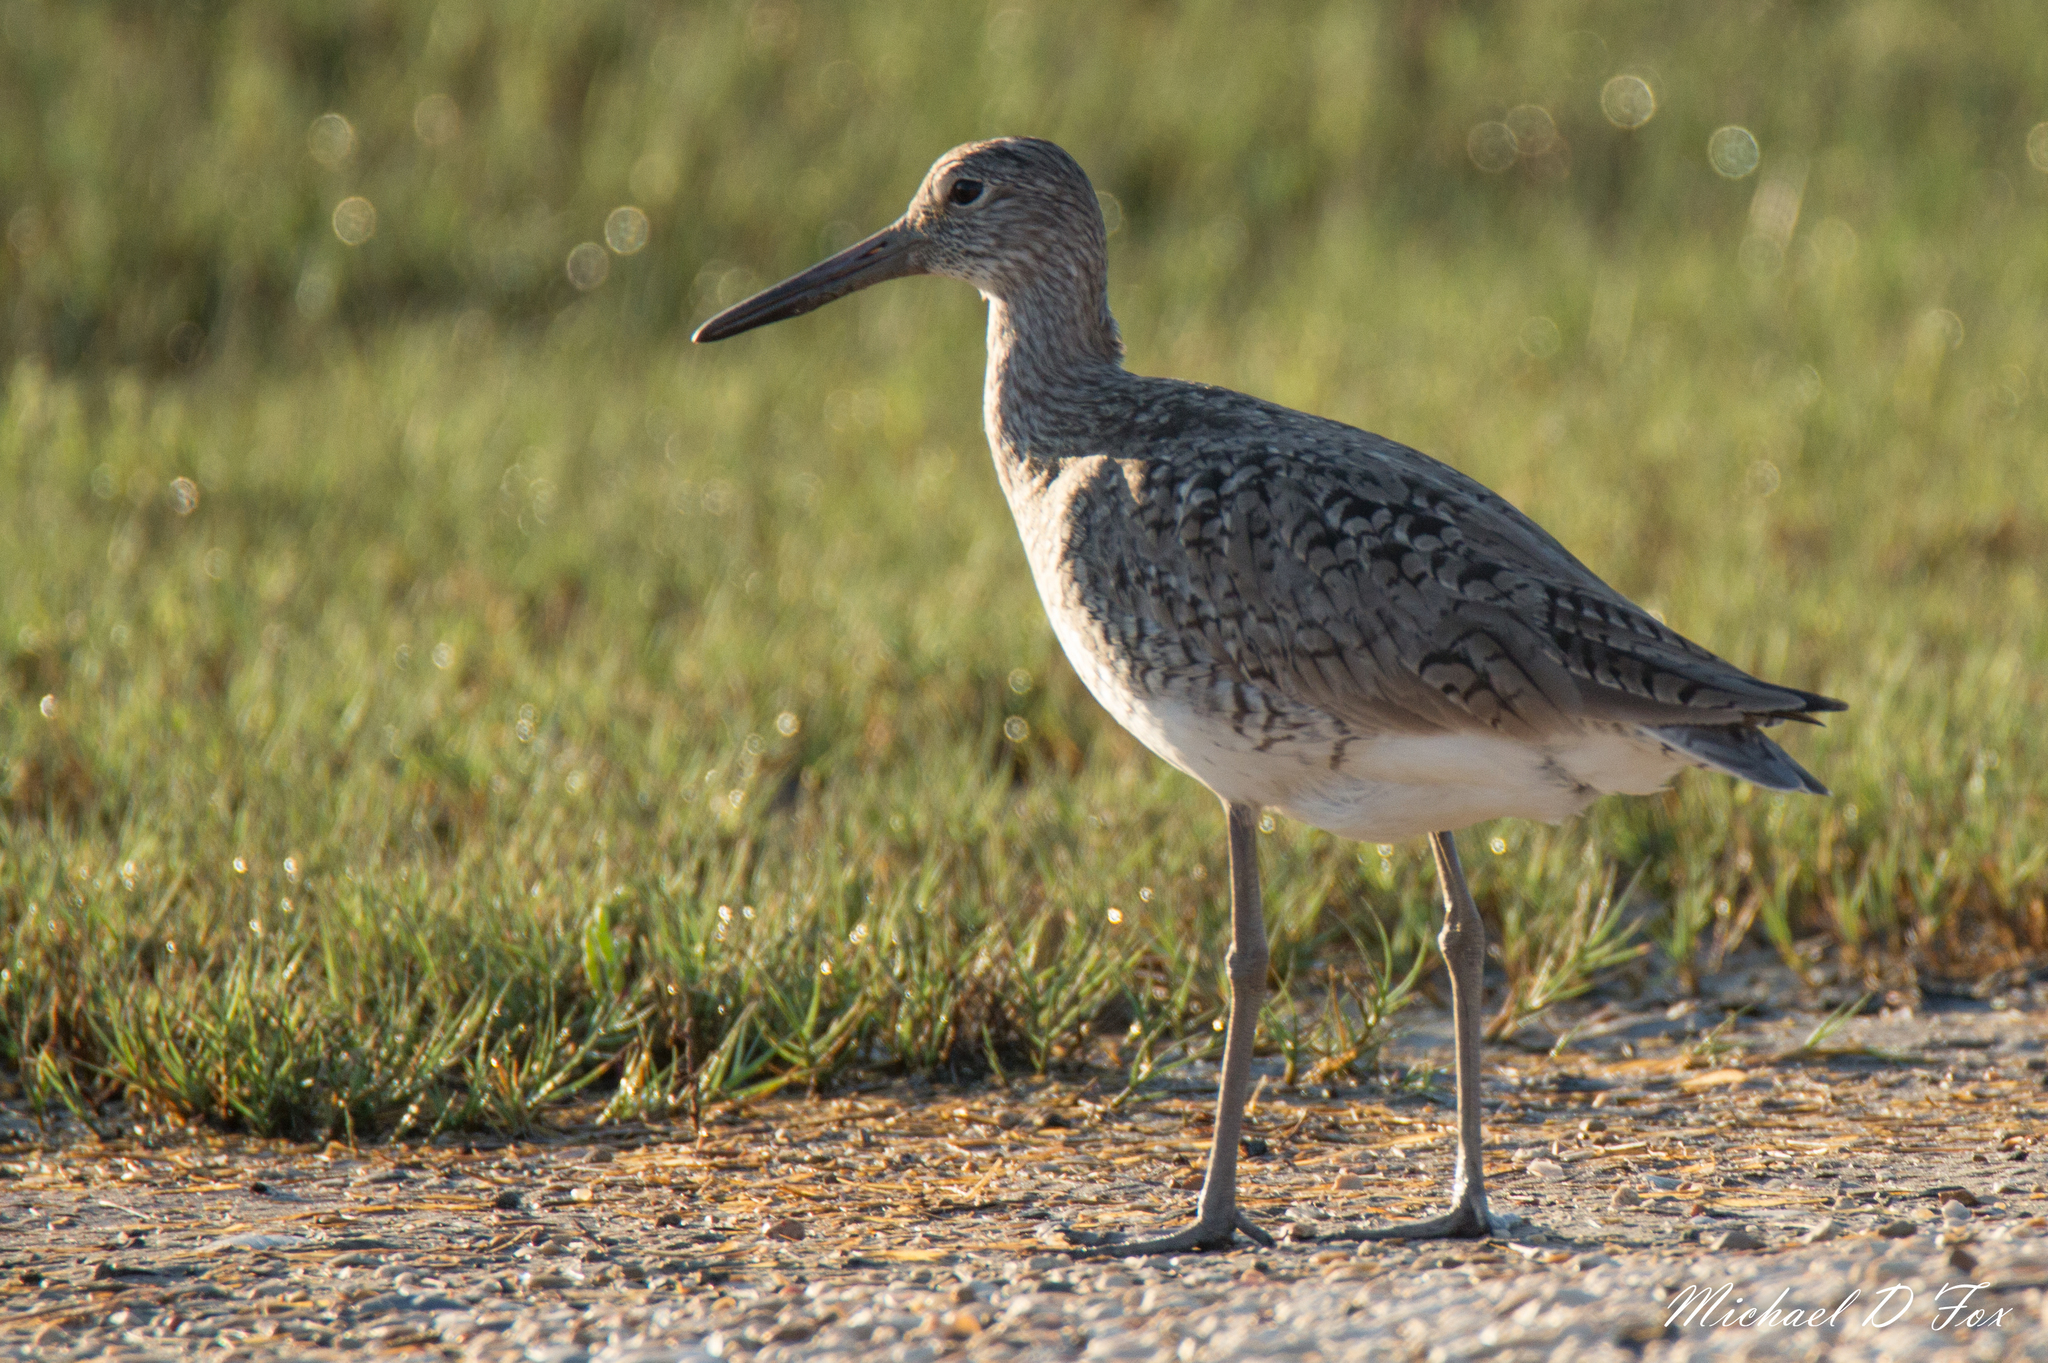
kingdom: Animalia
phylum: Chordata
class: Aves
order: Charadriiformes
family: Scolopacidae
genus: Tringa
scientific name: Tringa semipalmata
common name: Willet
